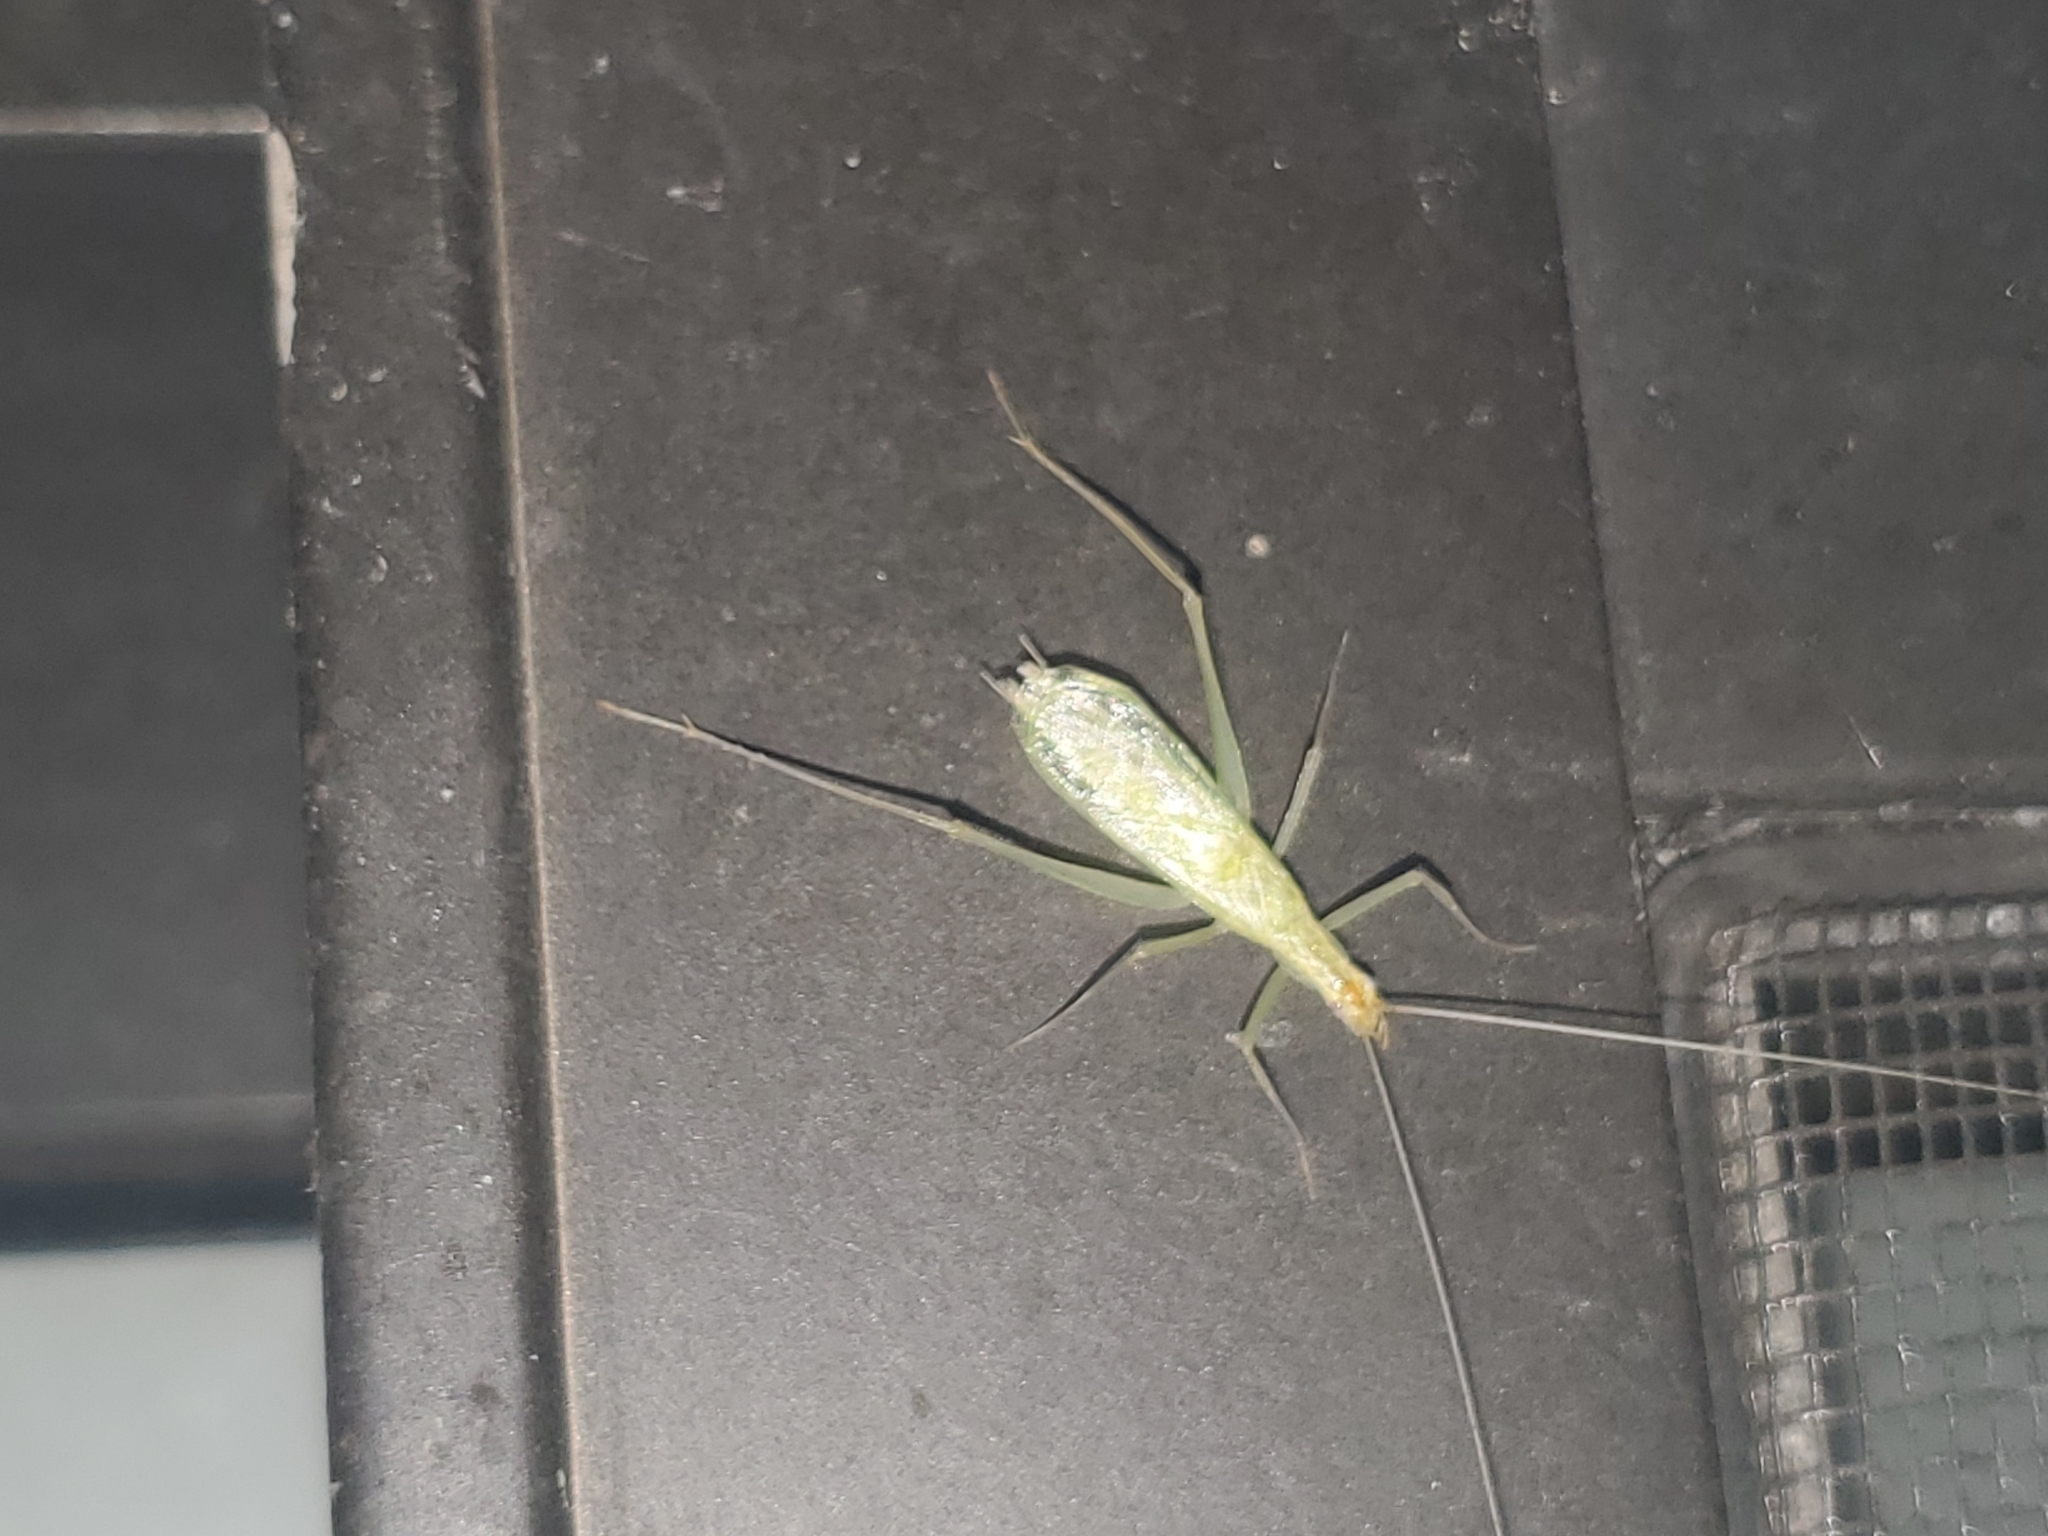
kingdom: Animalia
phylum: Arthropoda
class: Insecta
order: Orthoptera
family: Gryllidae
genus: Oecanthus
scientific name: Oecanthus niveus
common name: Narrow-winged tree cricket
